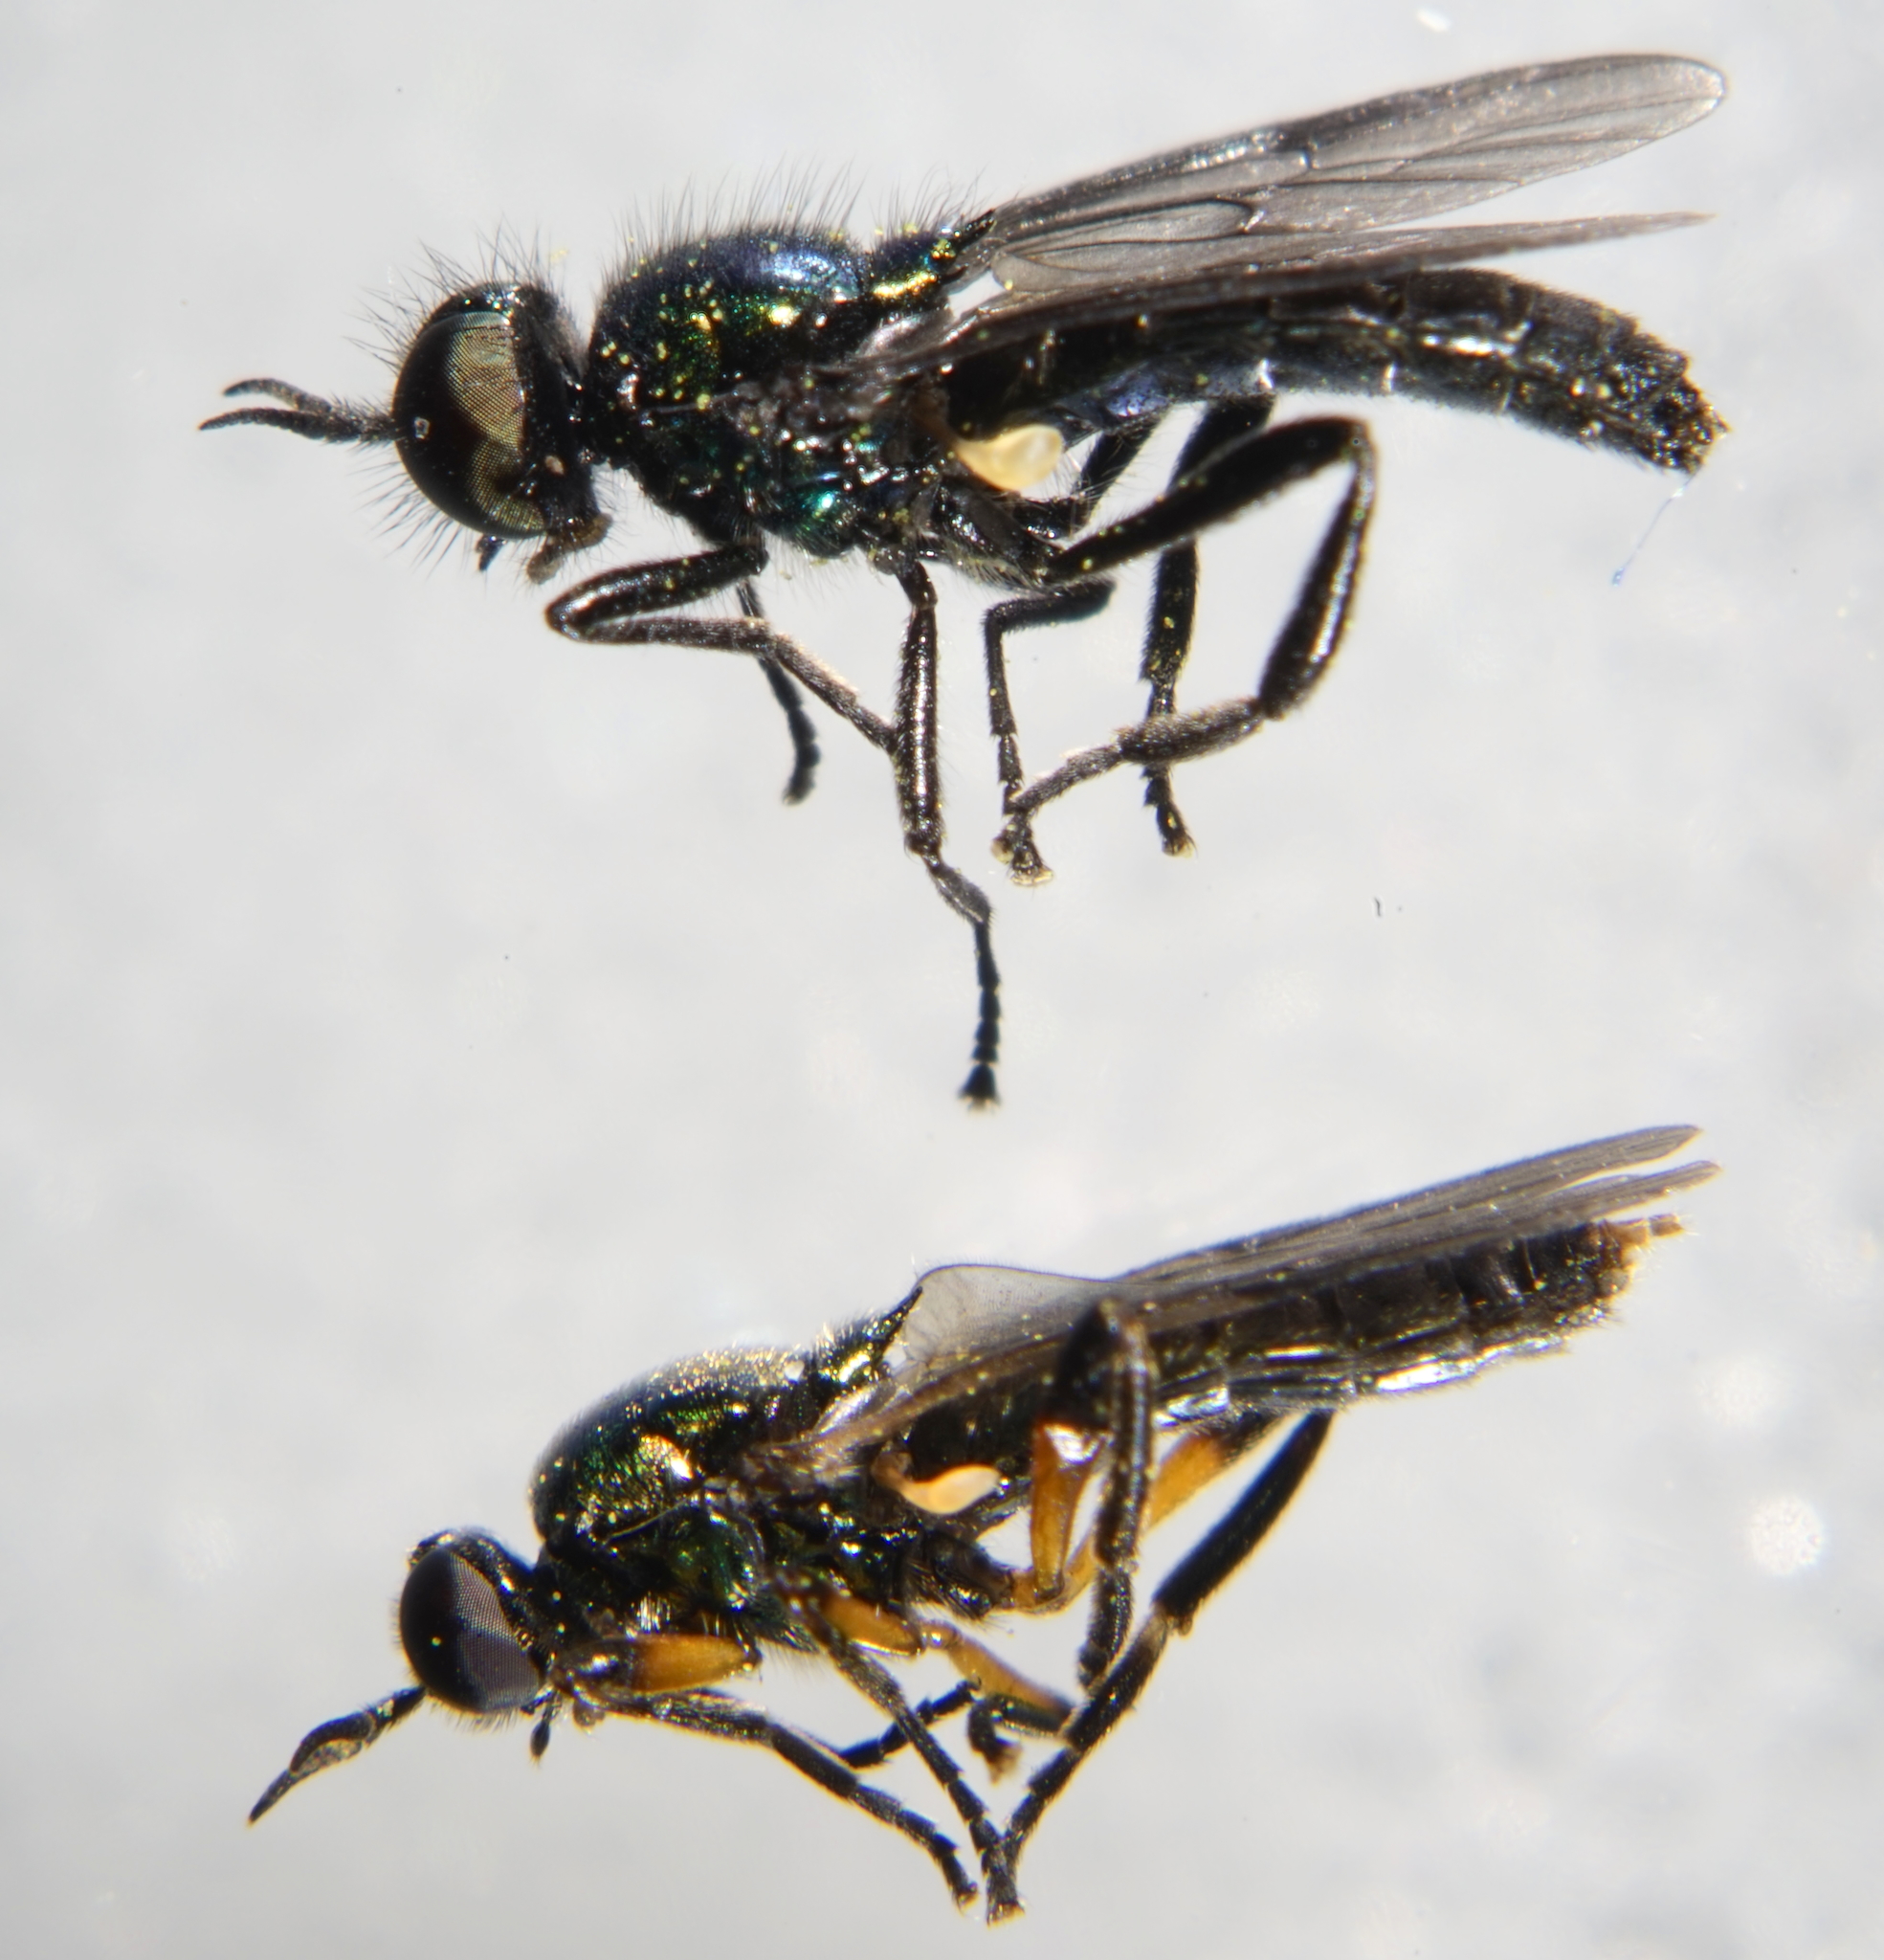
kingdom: Animalia
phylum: Arthropoda
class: Insecta
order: Diptera
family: Stratiomyidae
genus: Actina
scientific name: Actina chalybea
